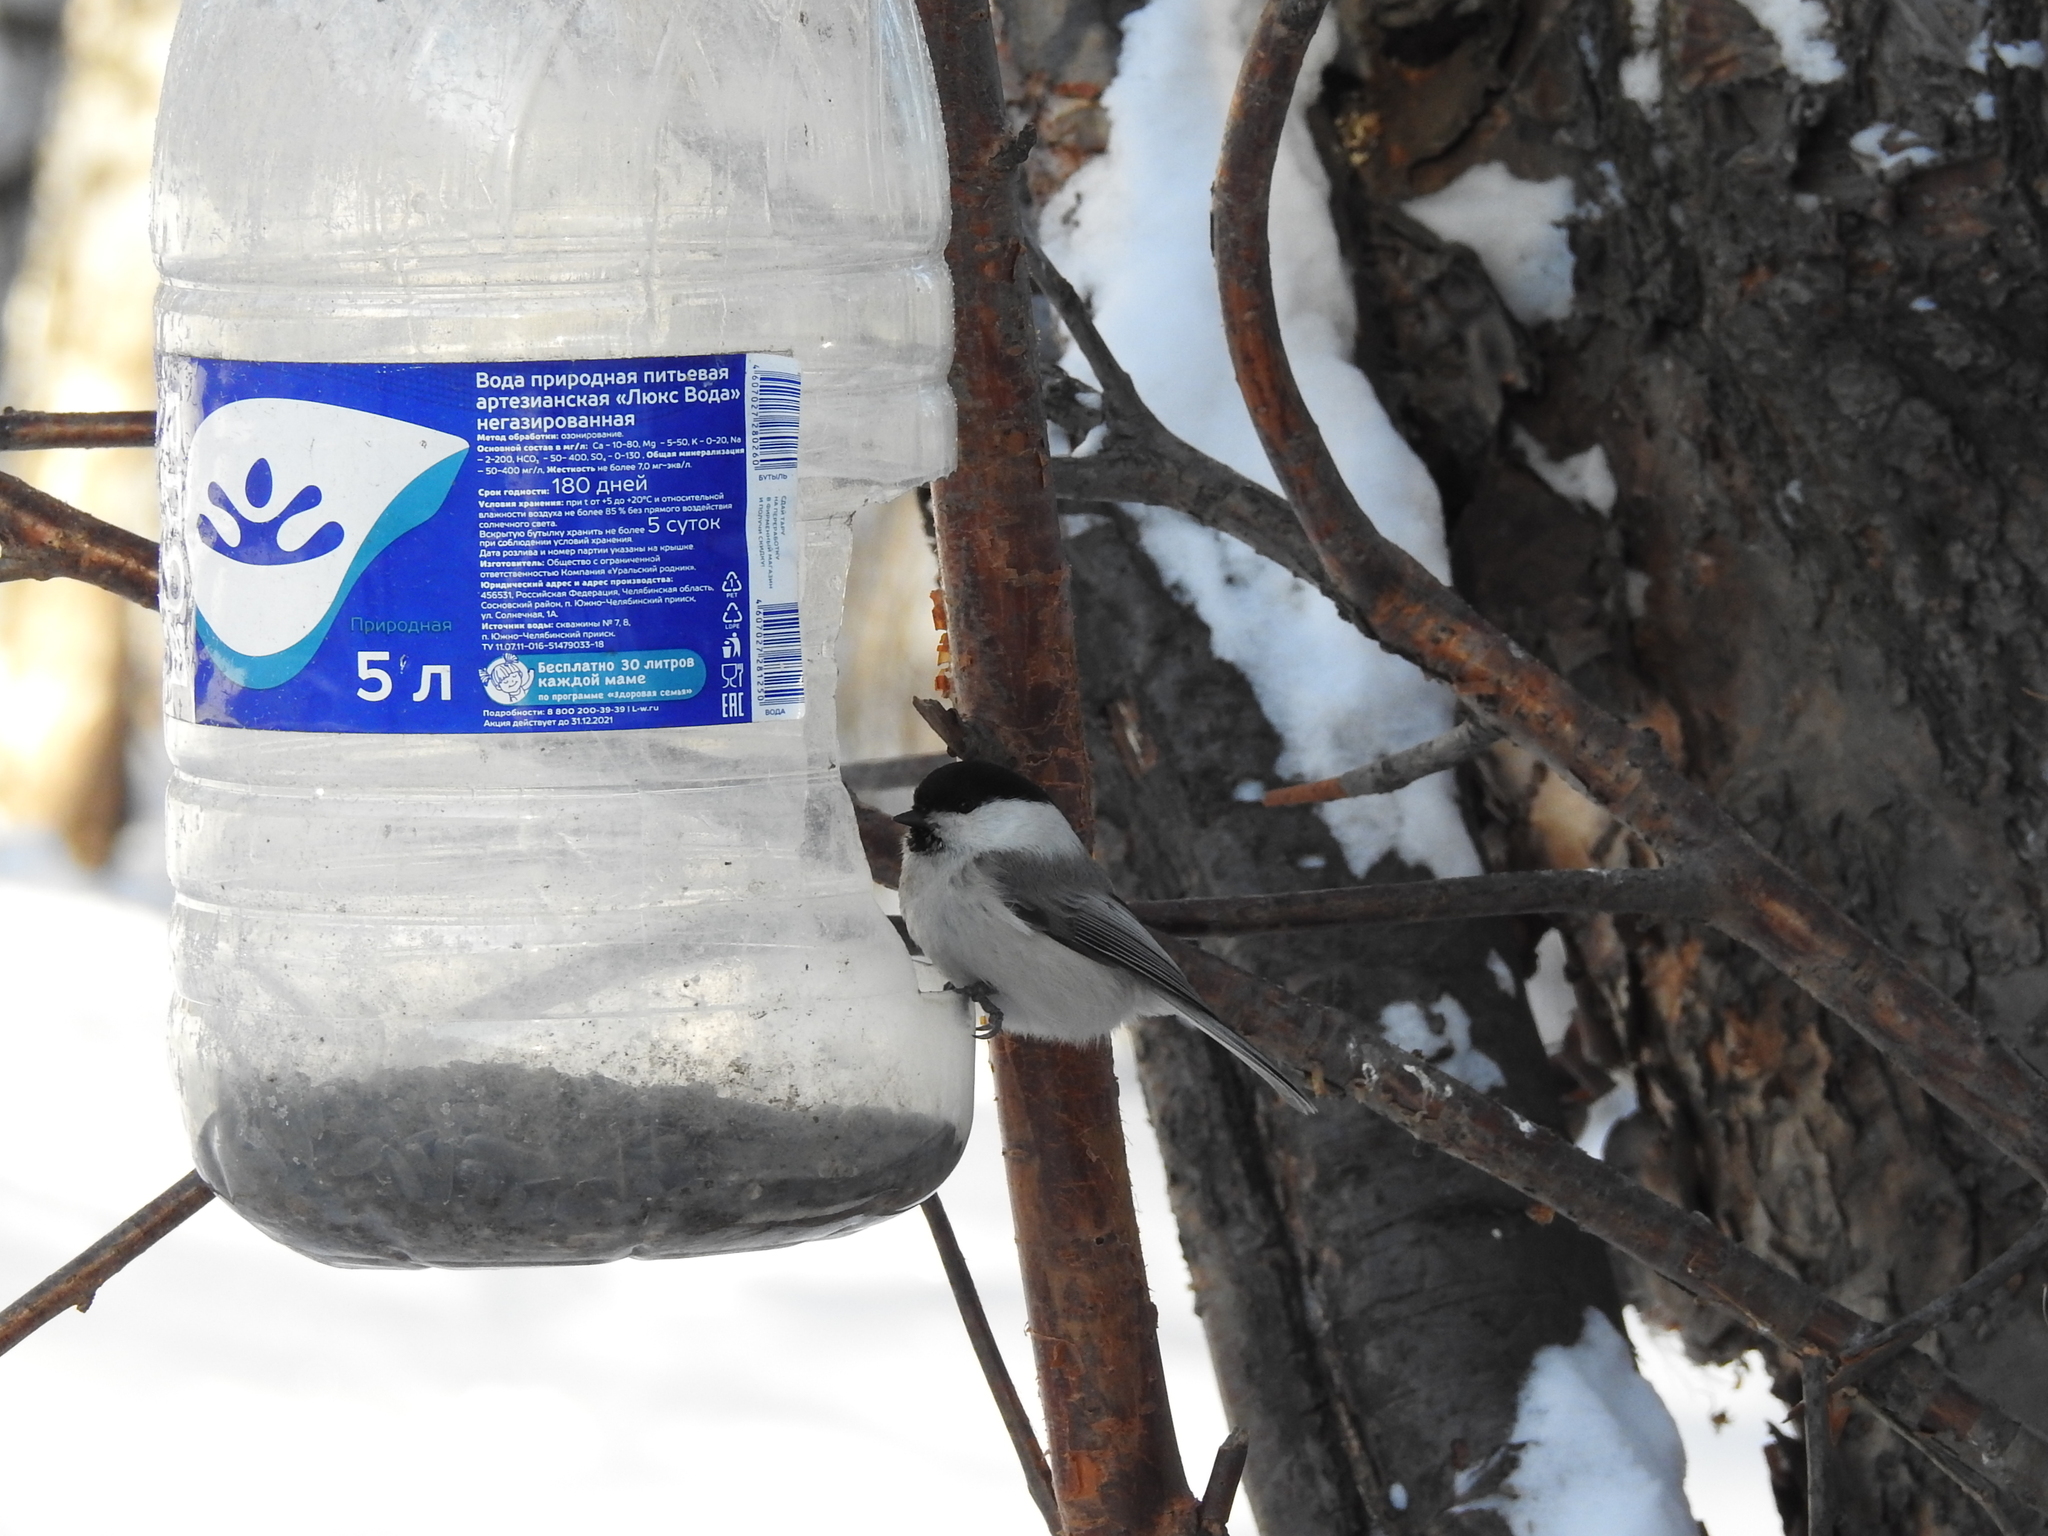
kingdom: Animalia
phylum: Chordata
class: Aves
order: Passeriformes
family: Paridae
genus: Poecile
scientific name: Poecile montanus
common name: Willow tit
